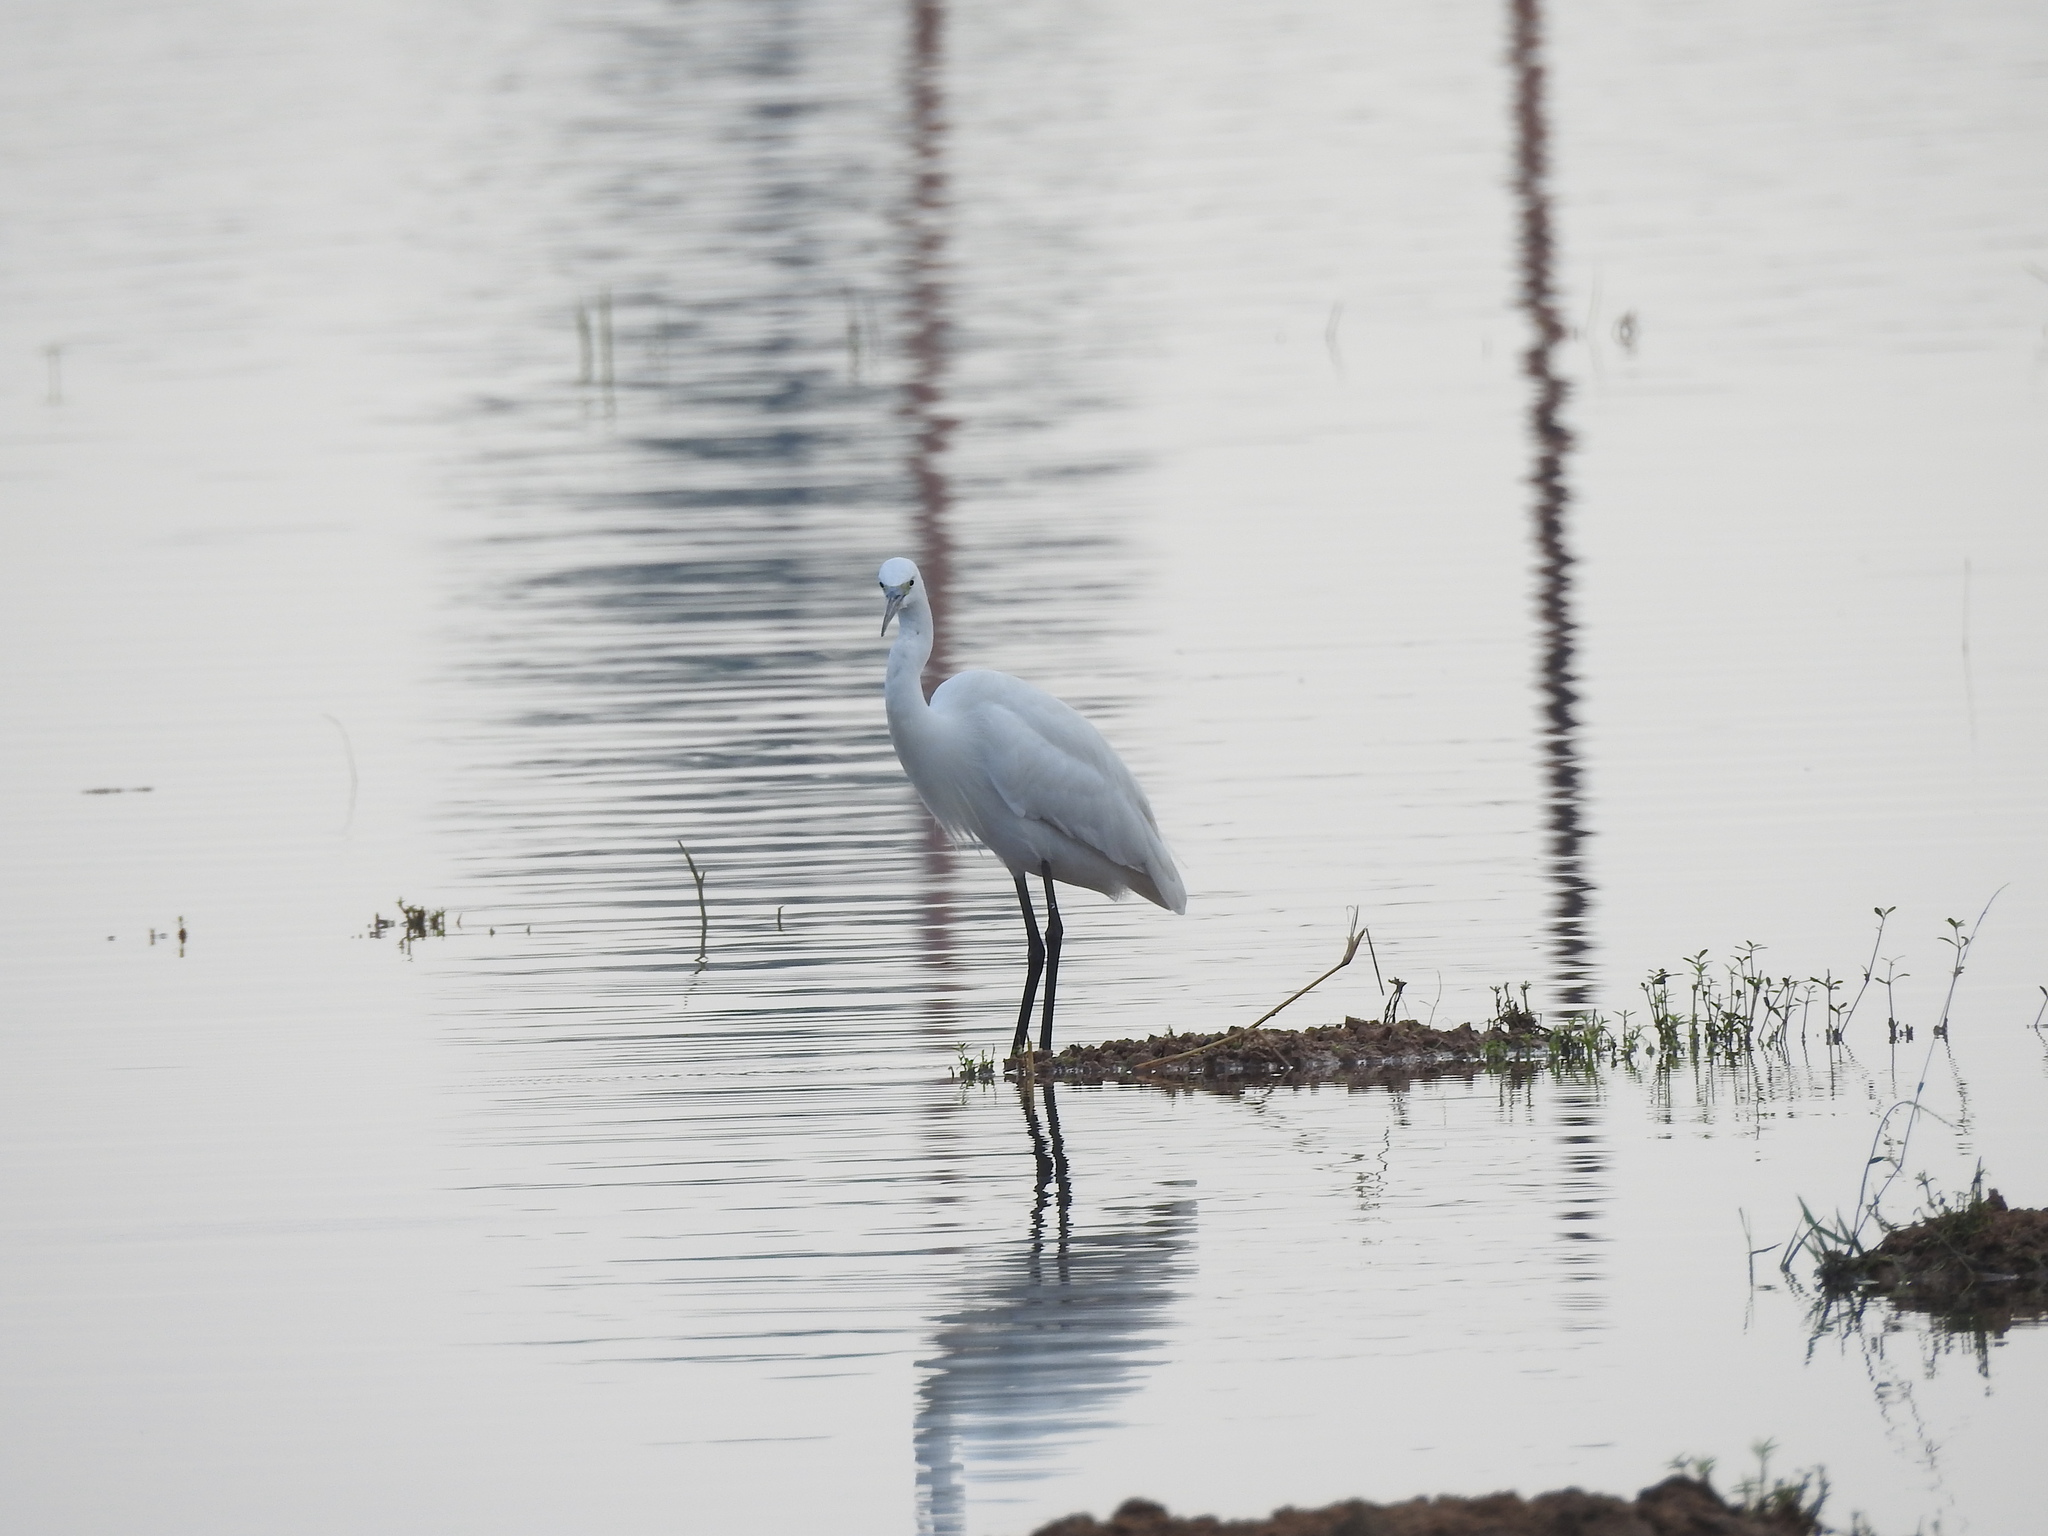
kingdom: Animalia
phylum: Chordata
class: Aves
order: Pelecaniformes
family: Ardeidae
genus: Egretta
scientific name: Egretta garzetta
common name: Little egret
